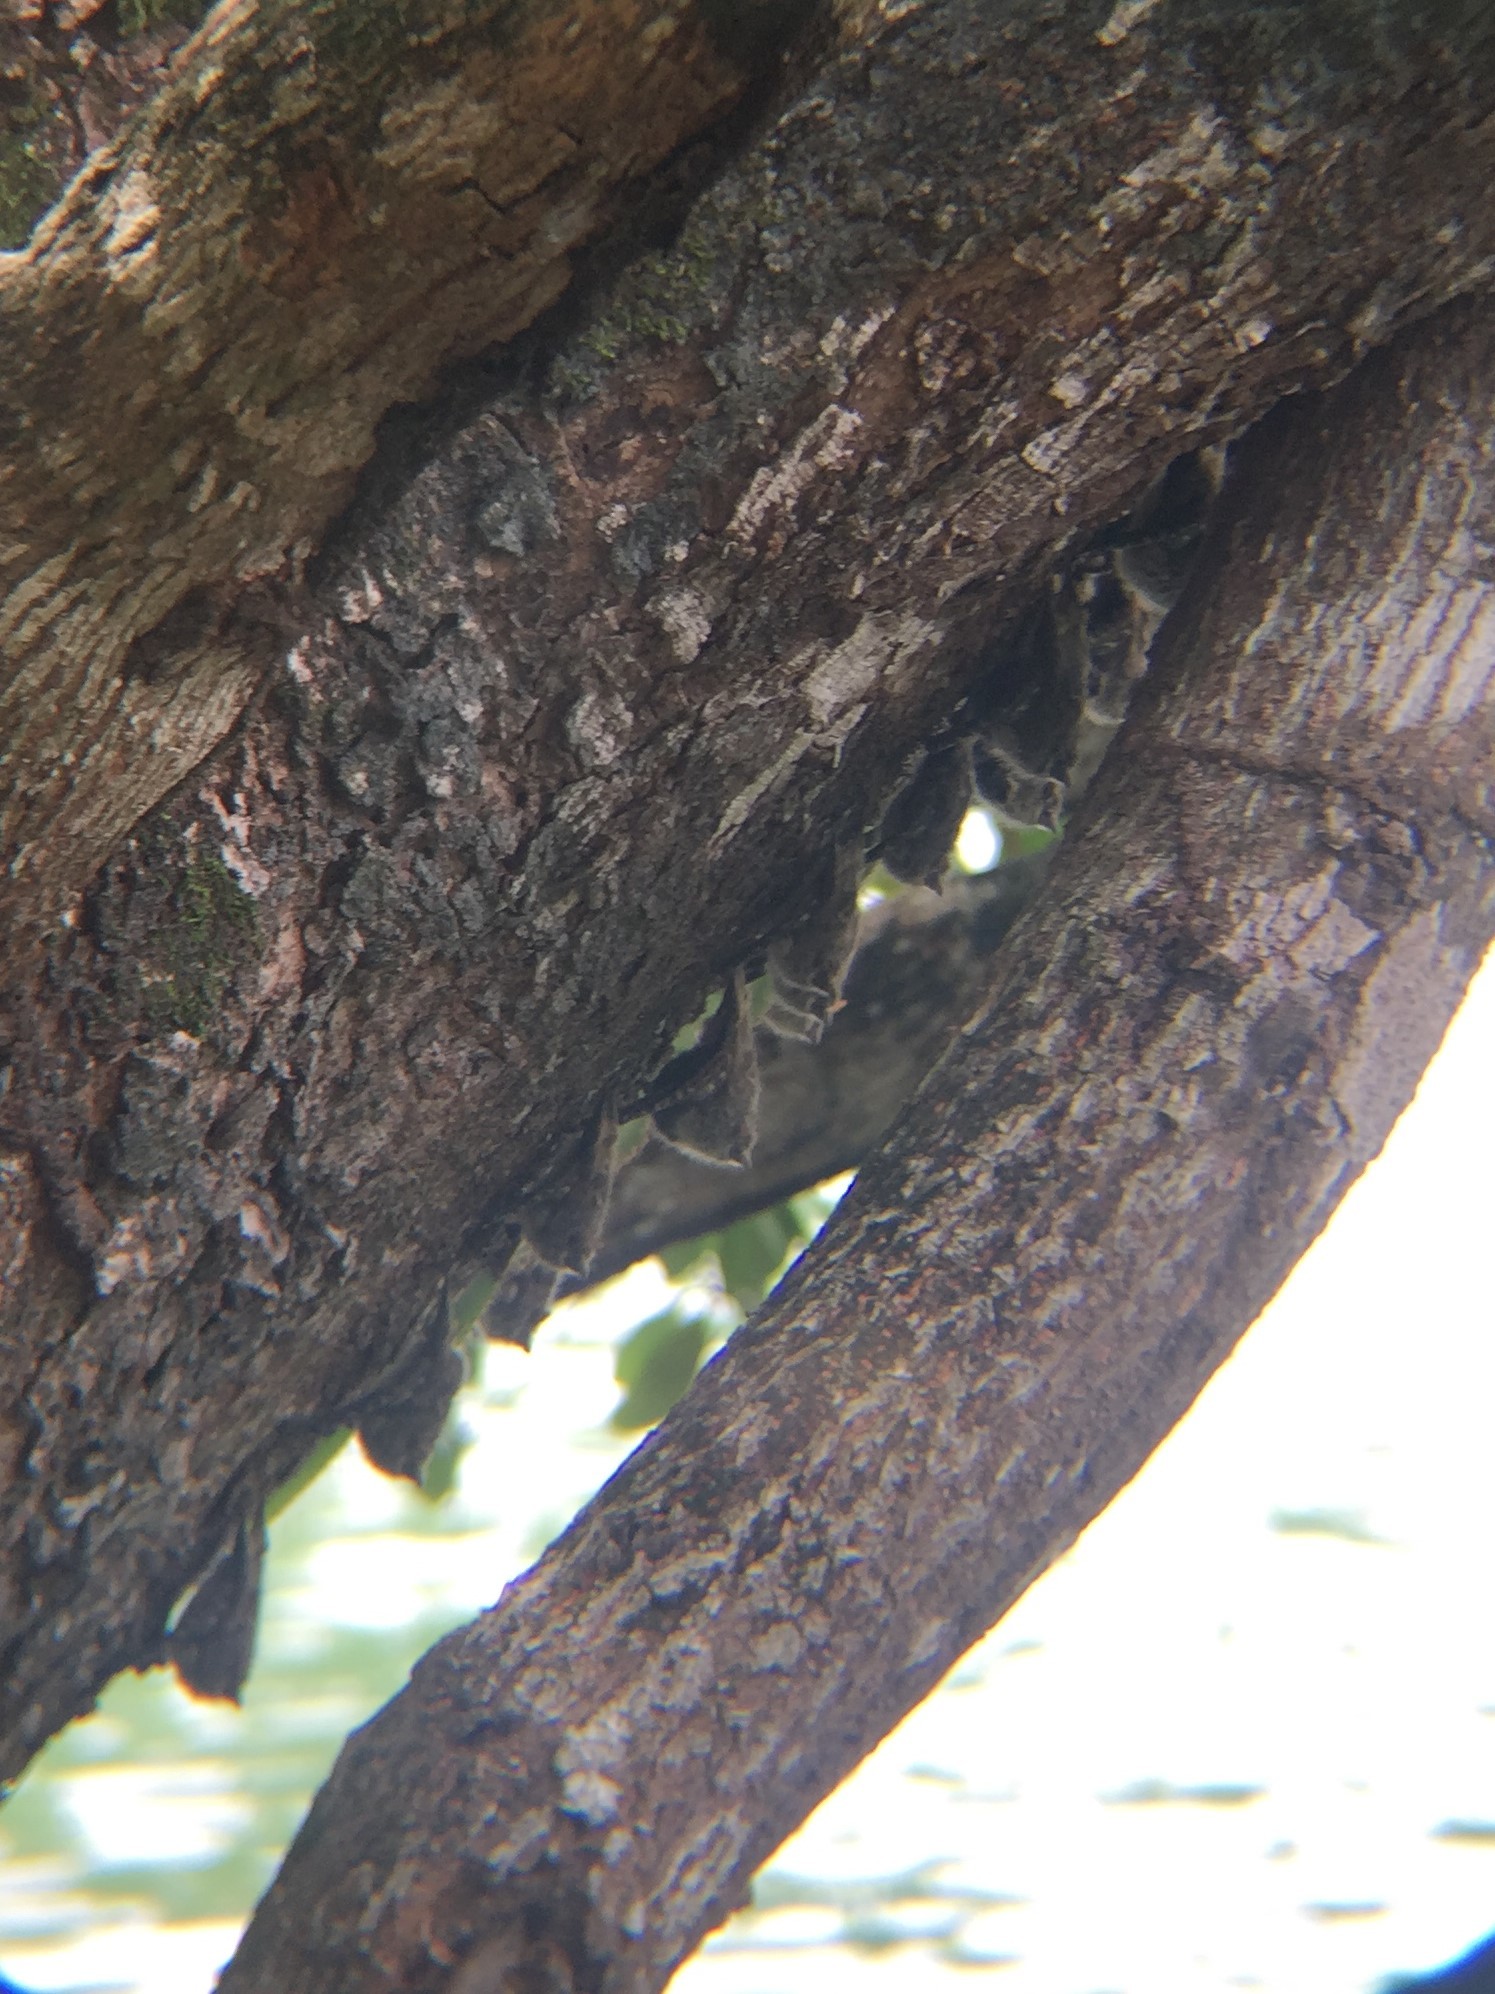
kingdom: Animalia
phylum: Chordata
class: Mammalia
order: Chiroptera
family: Emballonuridae
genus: Rhynchonycteris
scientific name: Rhynchonycteris naso
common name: Proboscis bat
